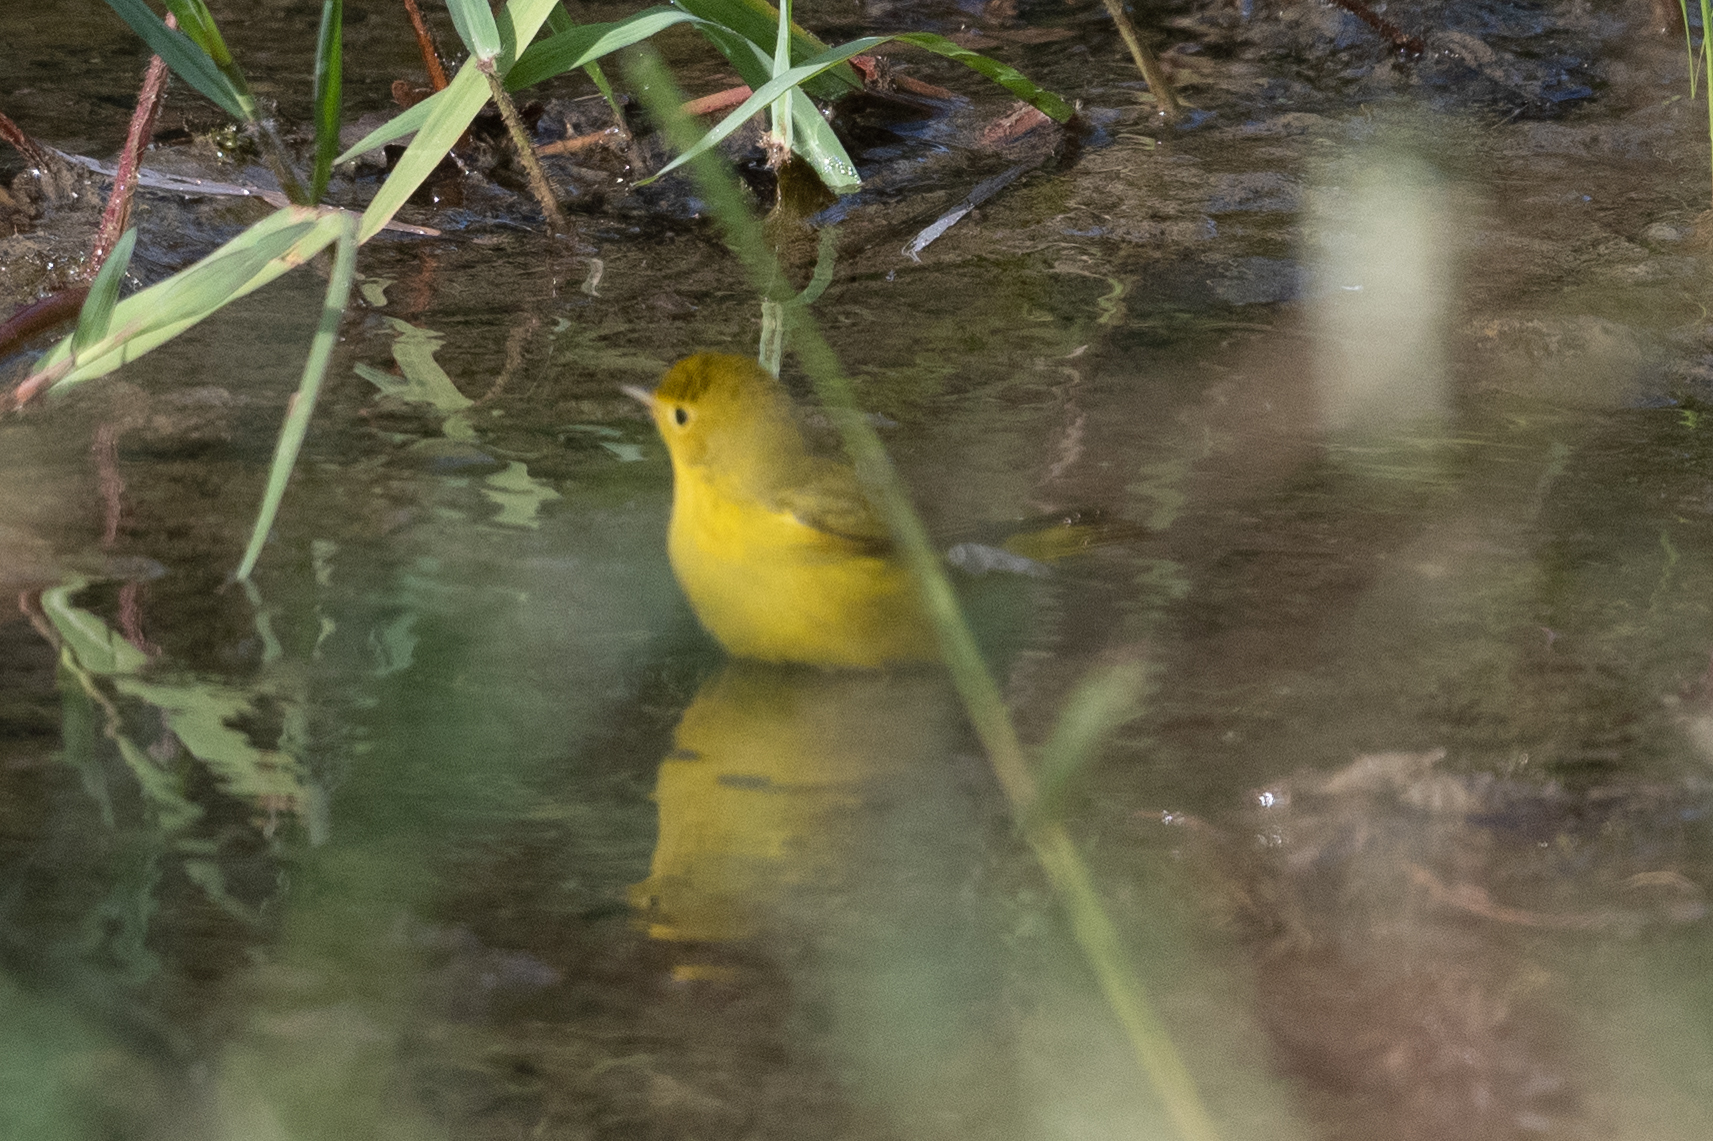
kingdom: Animalia
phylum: Chordata
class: Aves
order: Passeriformes
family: Parulidae
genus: Setophaga
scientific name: Setophaga petechia
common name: Yellow warbler
